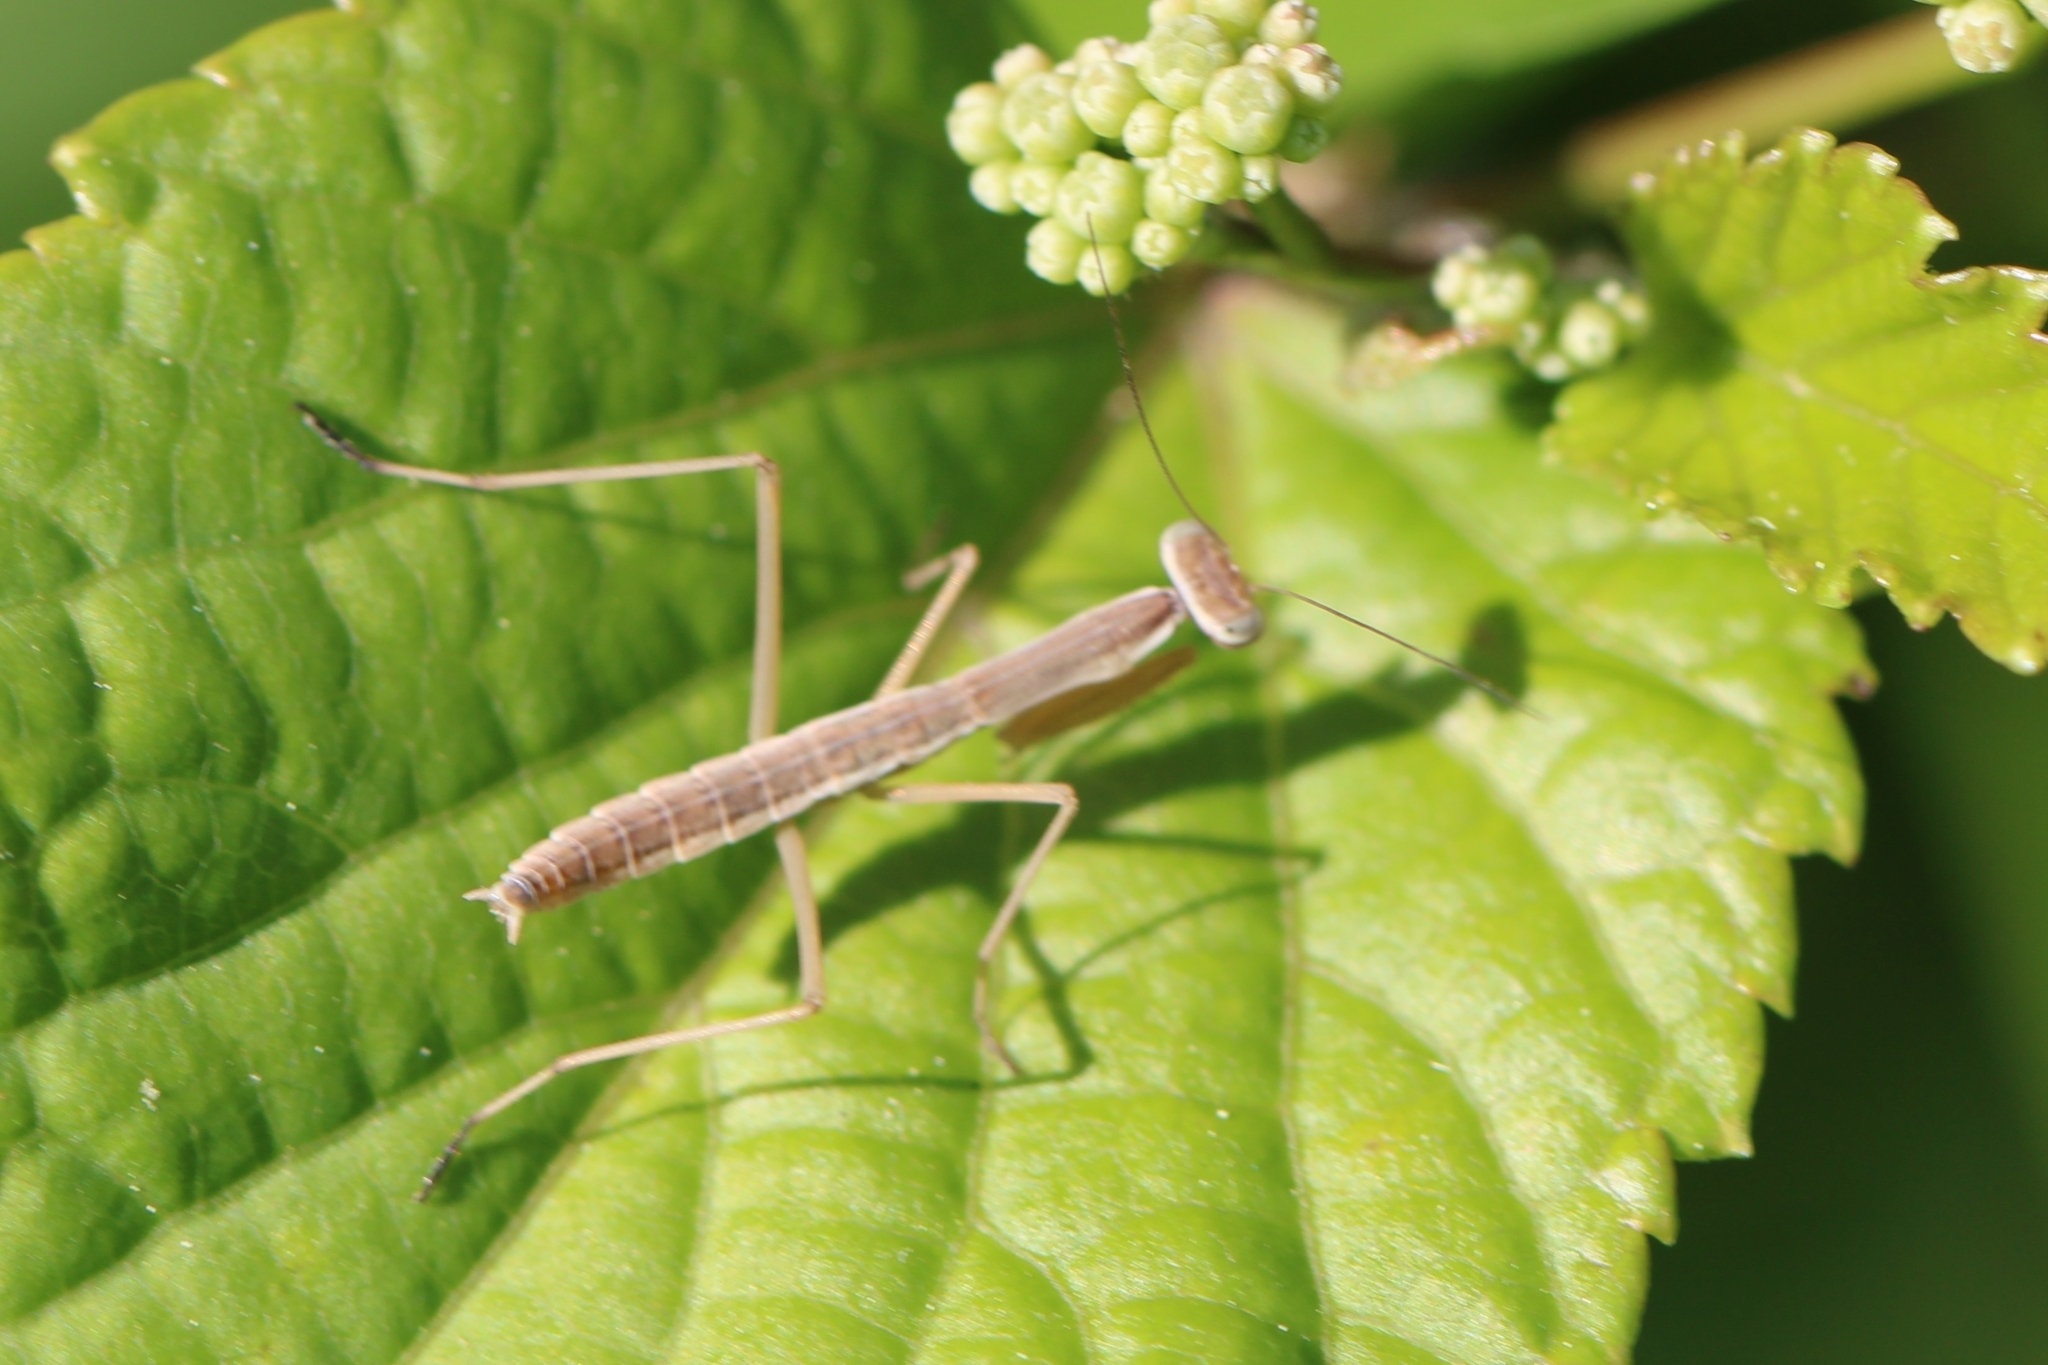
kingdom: Animalia
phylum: Arthropoda
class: Insecta
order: Mantodea
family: Mantidae
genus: Tenodera
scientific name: Tenodera sinensis
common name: Chinese mantis
